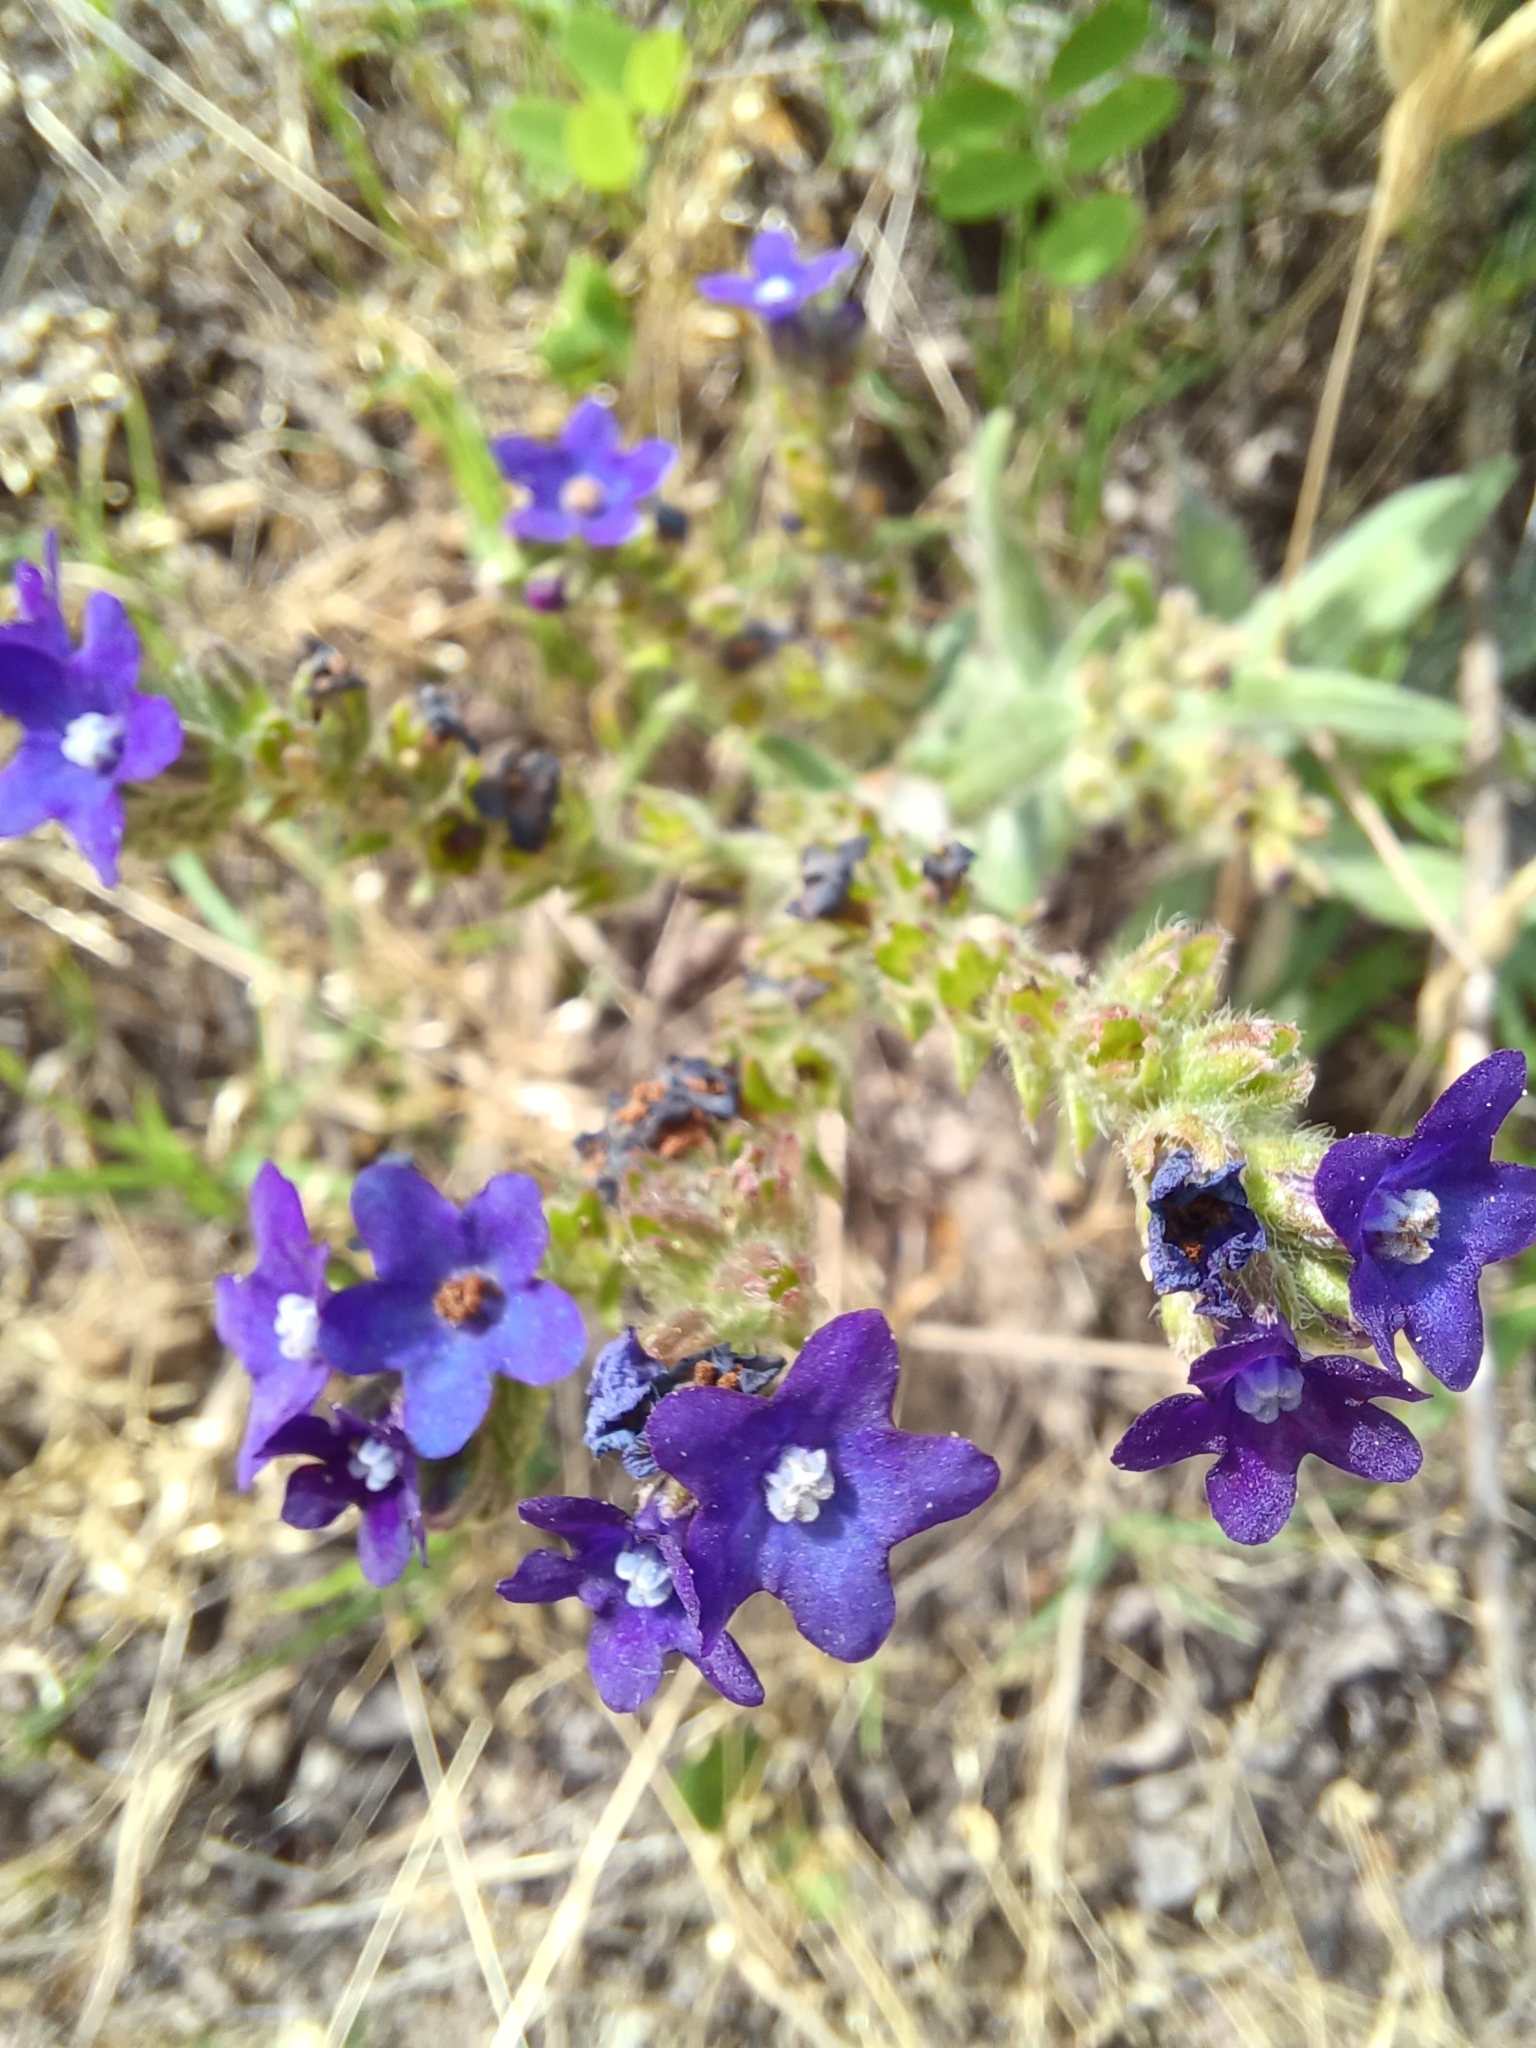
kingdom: Plantae
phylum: Tracheophyta
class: Magnoliopsida
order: Boraginales
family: Boraginaceae
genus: Anchusa
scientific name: Anchusa officinalis
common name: Alkanet
